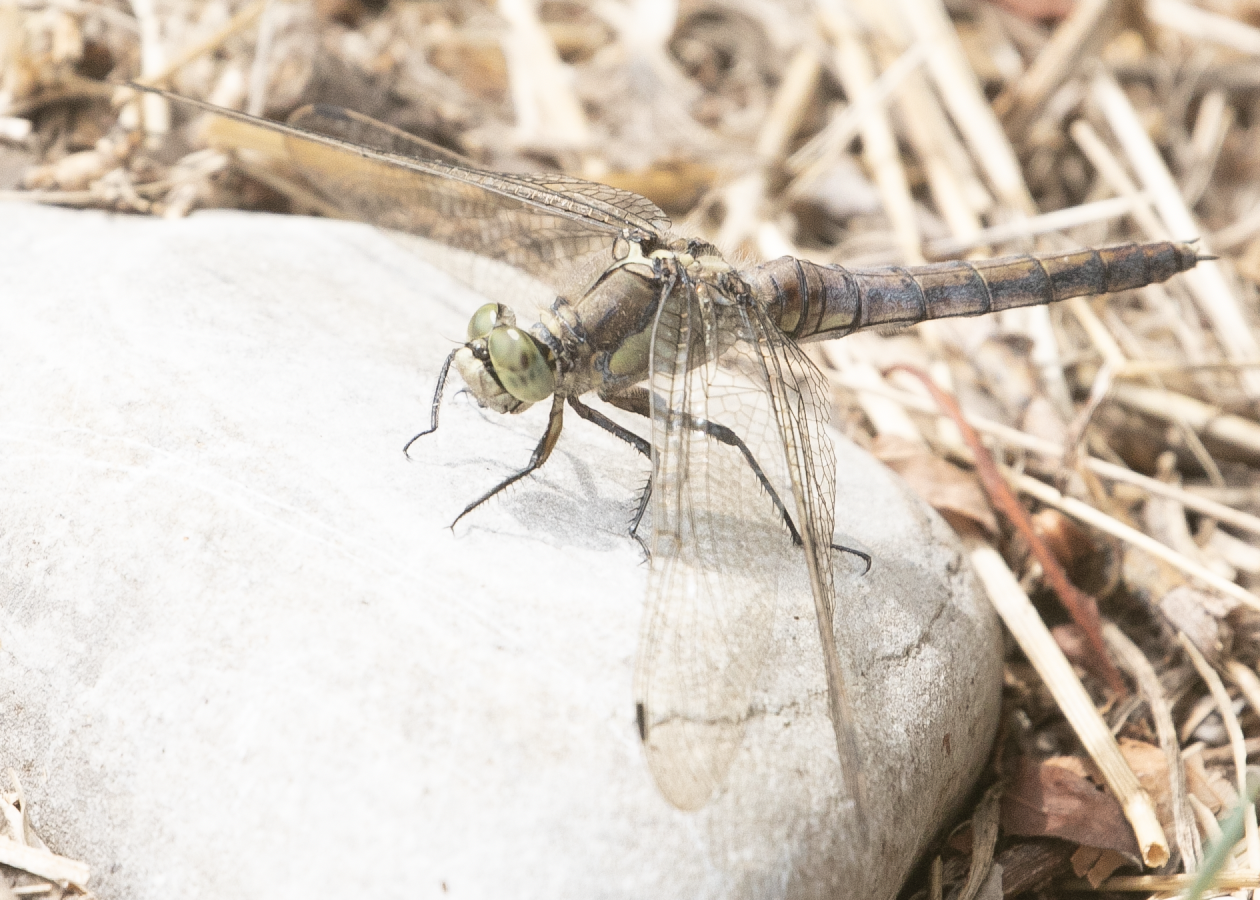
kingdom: Animalia
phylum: Arthropoda
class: Insecta
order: Odonata
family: Libellulidae
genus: Orthetrum
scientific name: Orthetrum cancellatum
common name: Black-tailed skimmer
